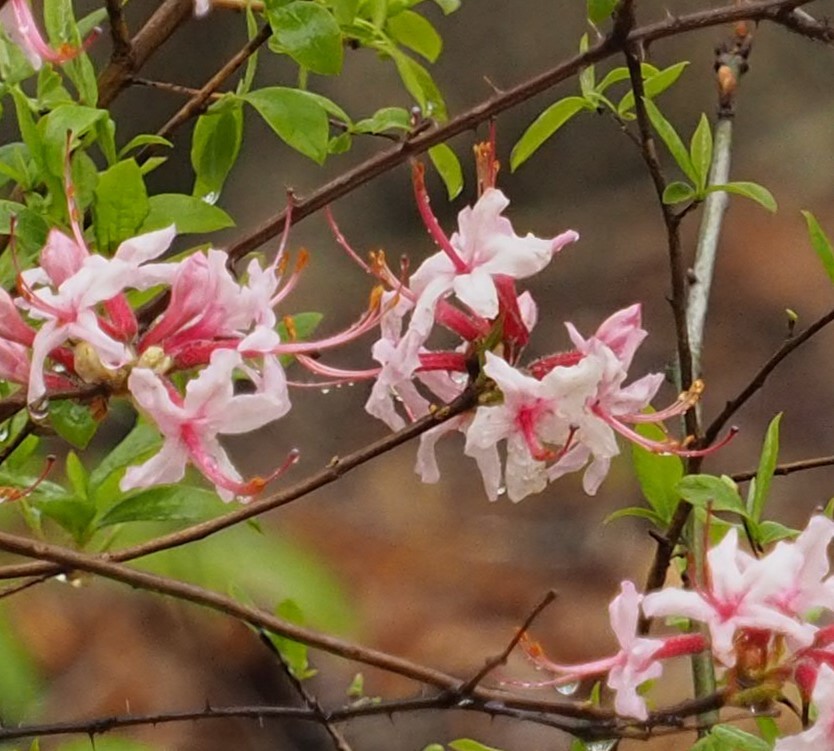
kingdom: Plantae
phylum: Tracheophyta
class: Magnoliopsida
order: Ericales
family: Ericaceae
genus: Rhododendron
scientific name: Rhododendron periclymenoides
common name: Election-pink
